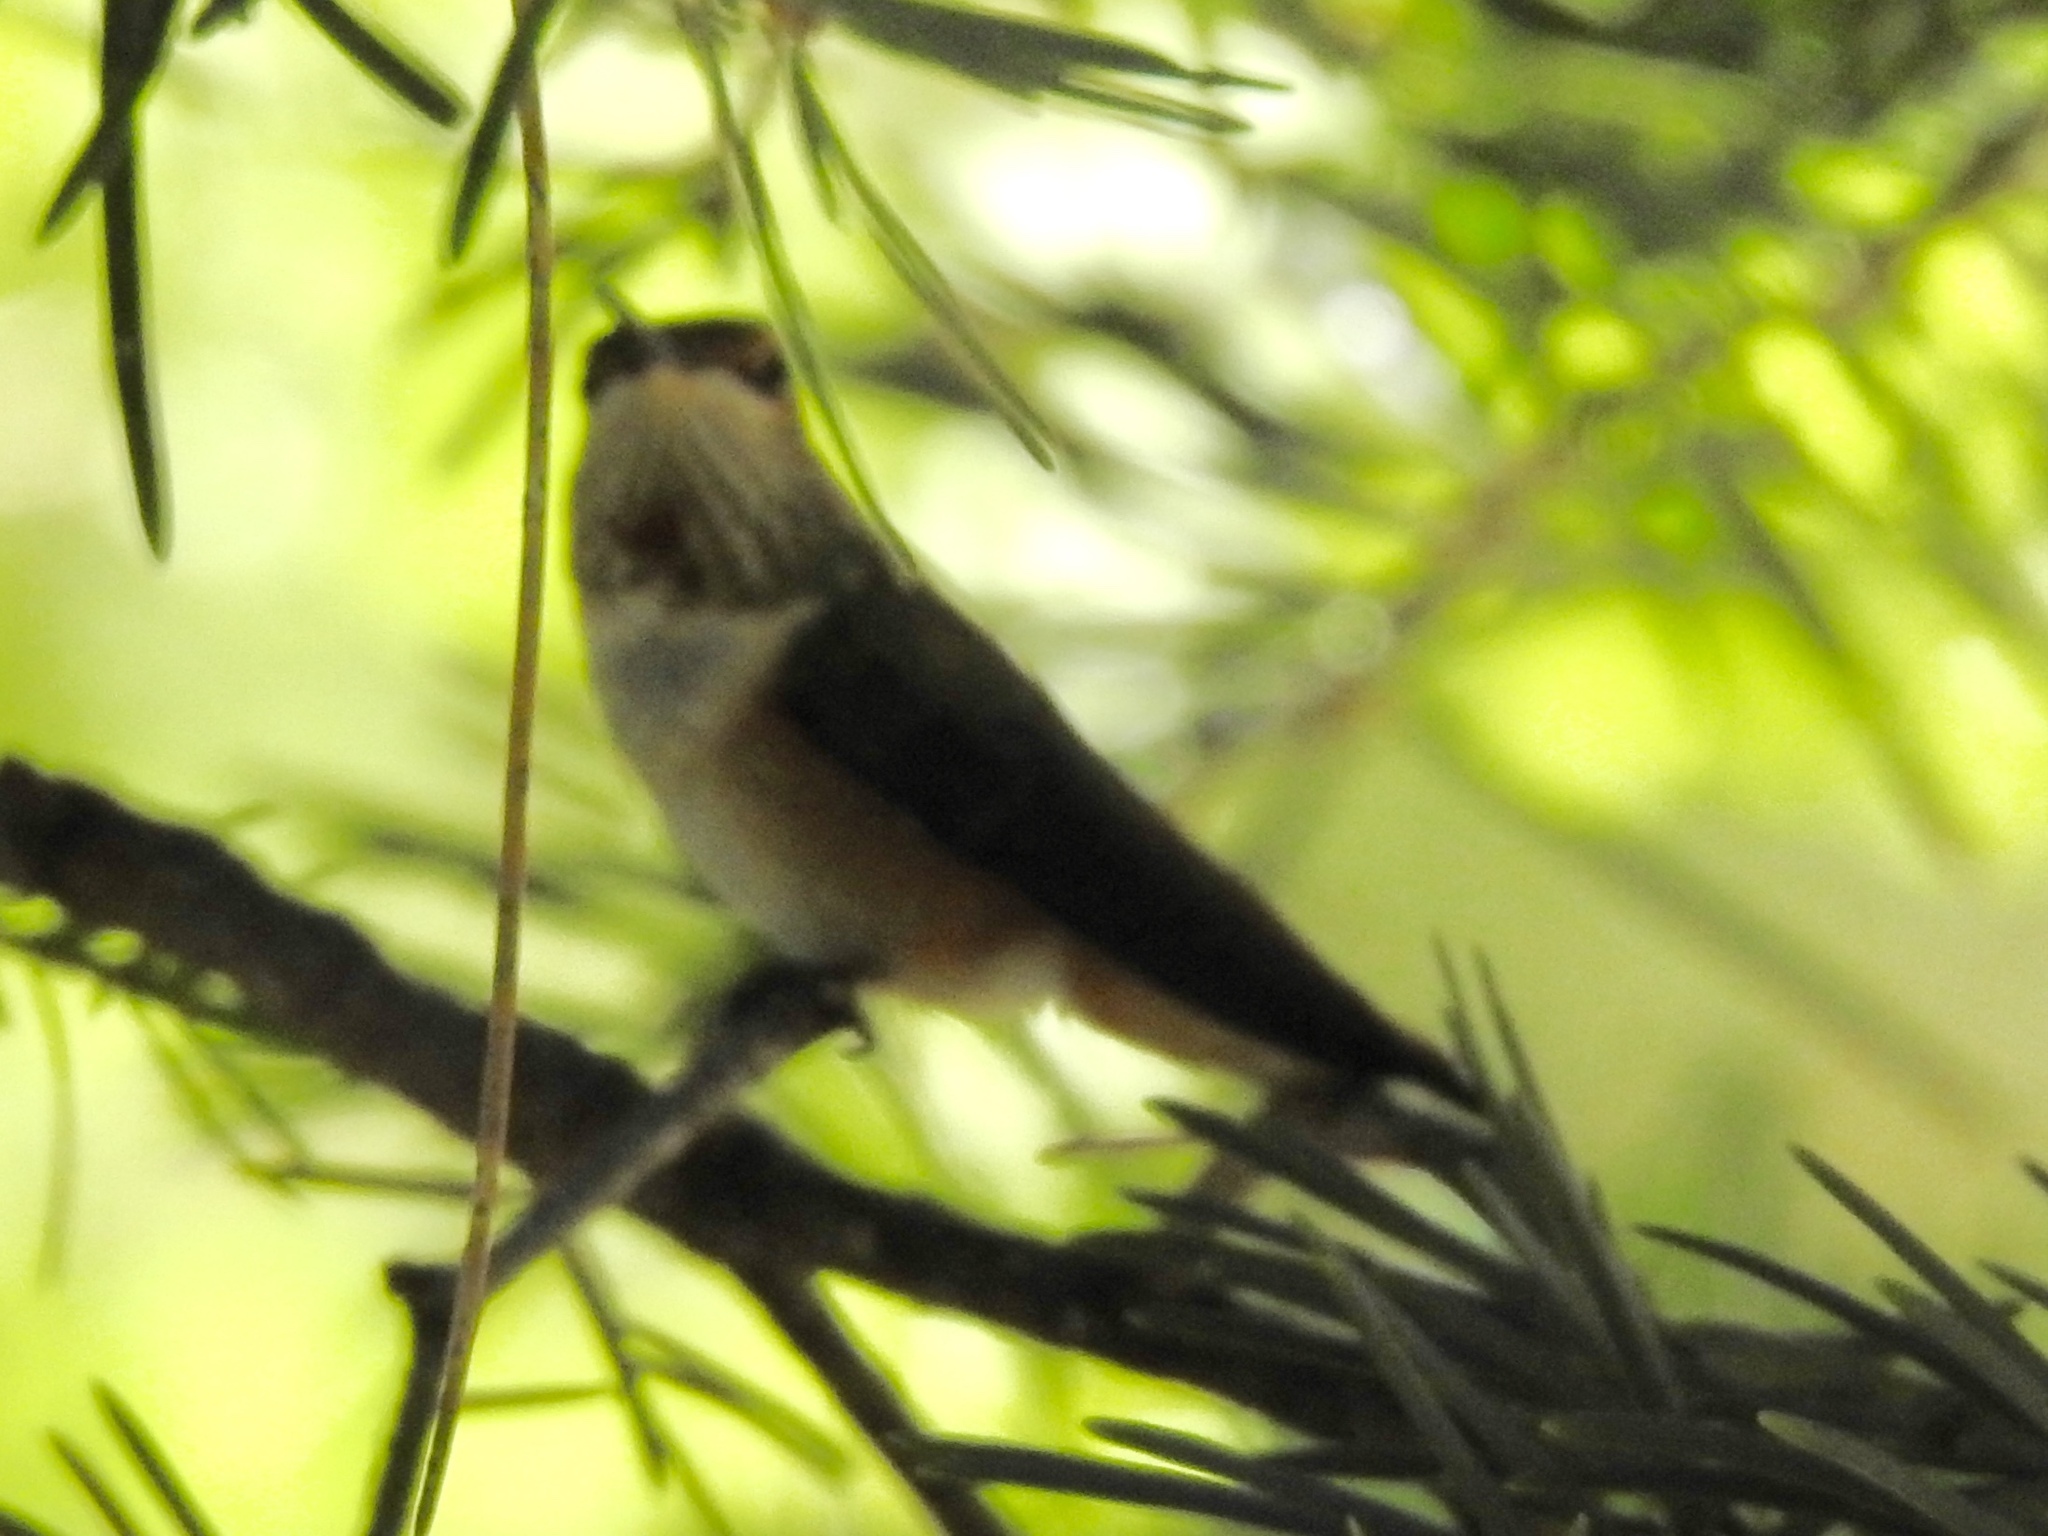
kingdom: Animalia
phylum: Chordata
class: Aves
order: Apodiformes
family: Trochilidae
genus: Selasphorus
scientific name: Selasphorus rufus
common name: Rufous hummingbird
